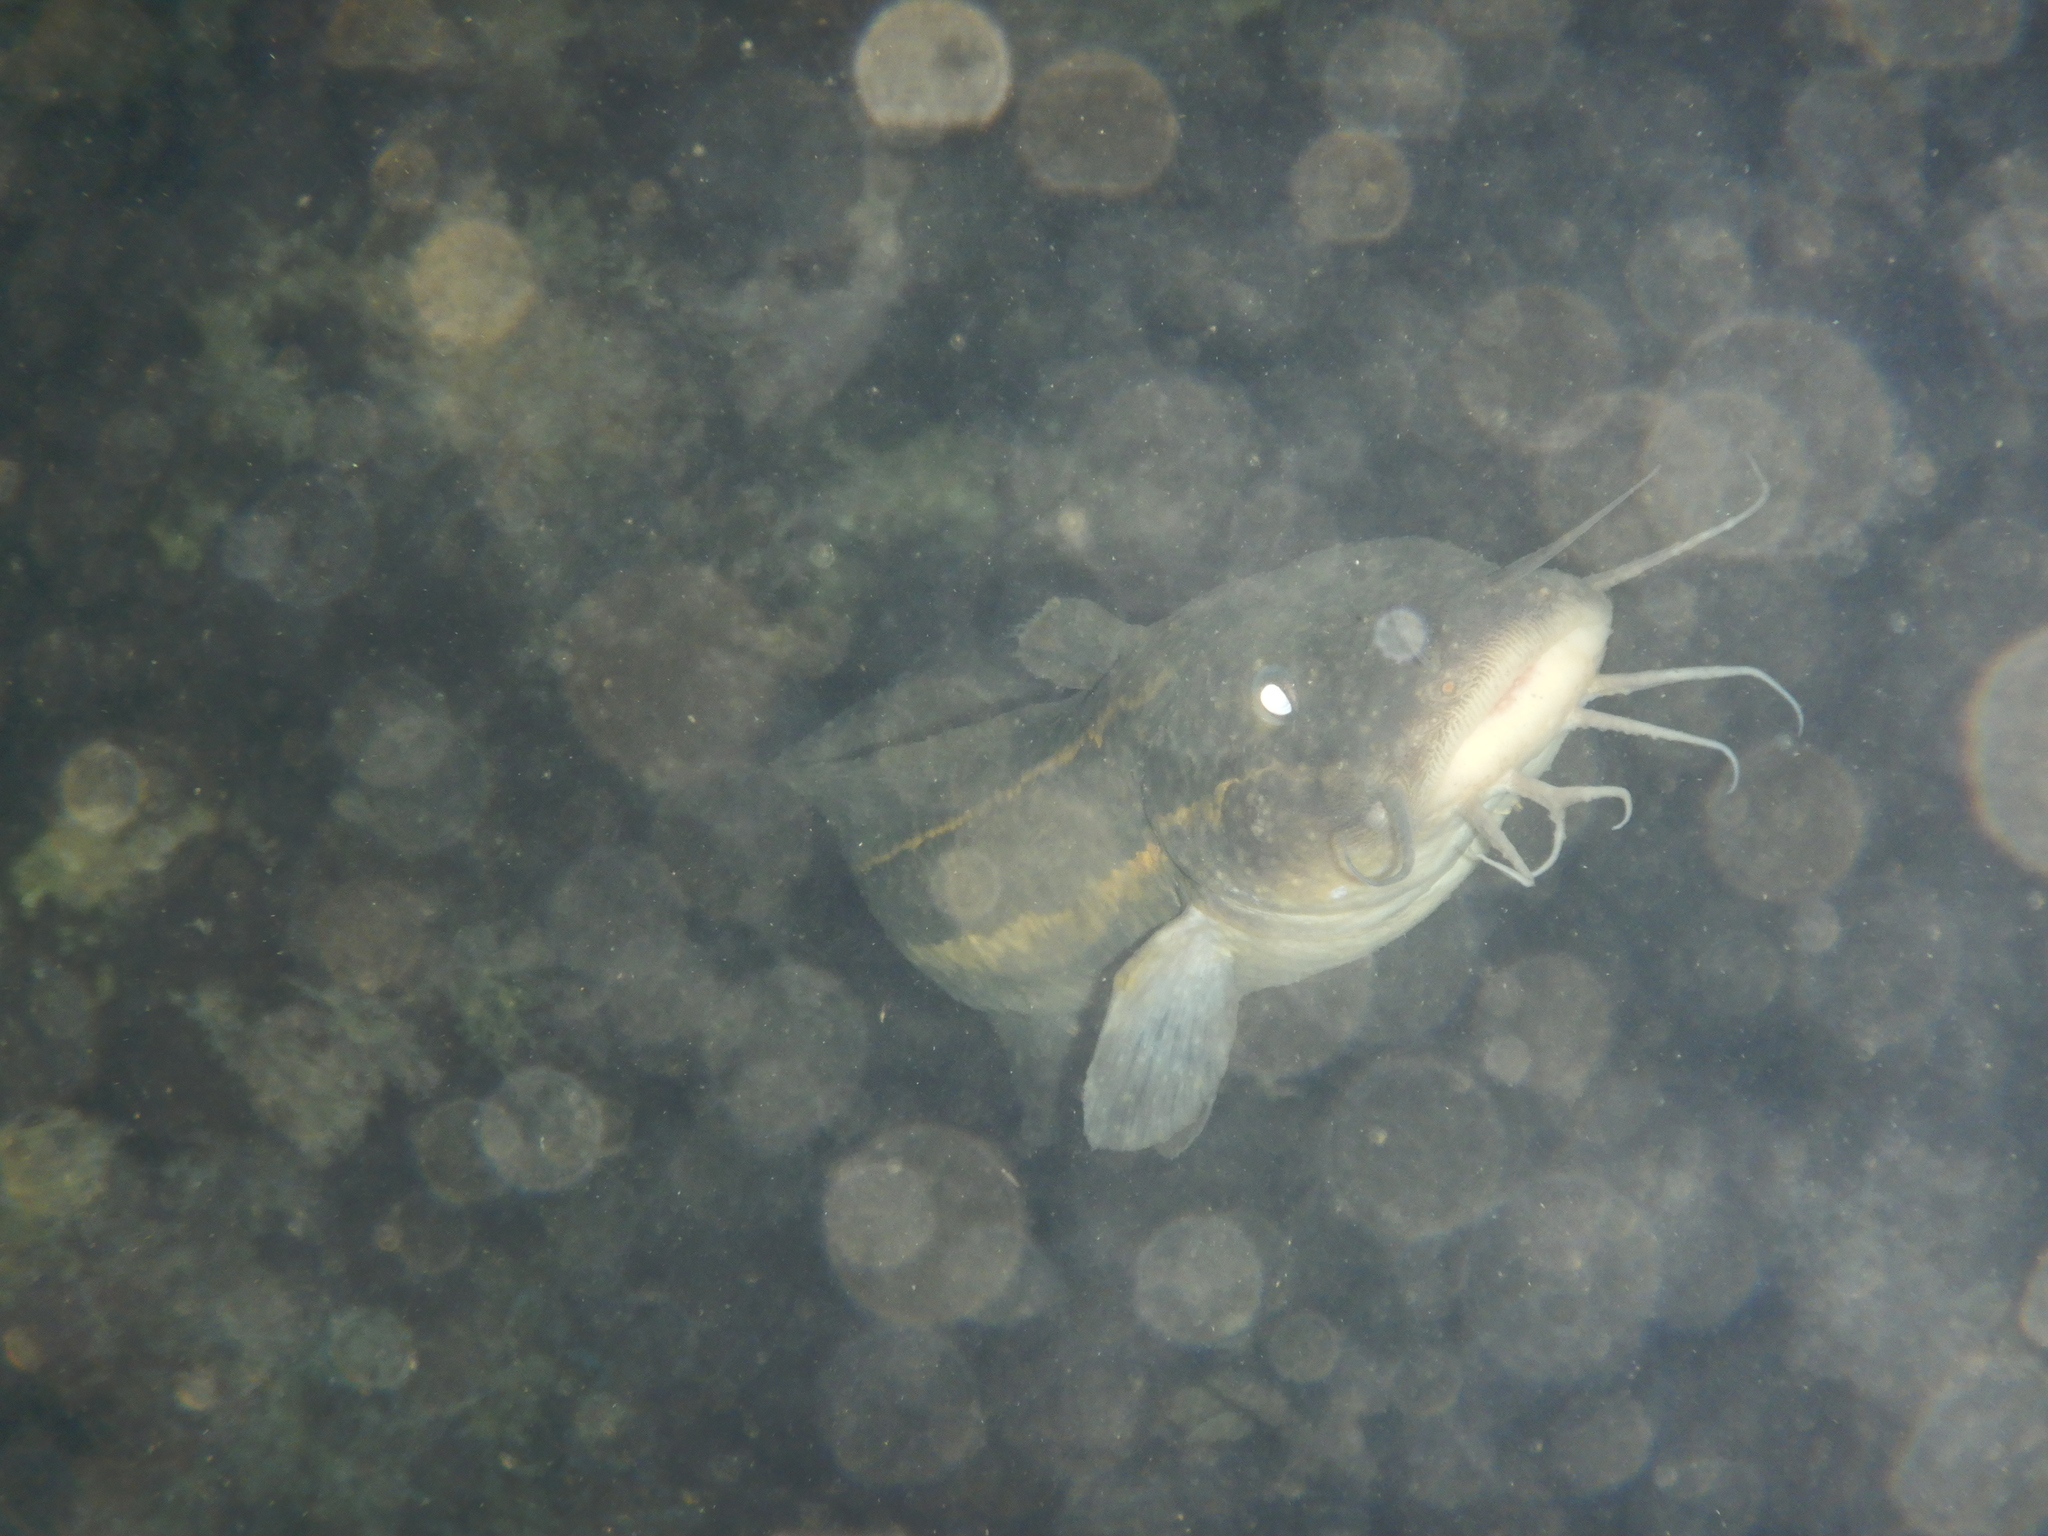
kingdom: Animalia
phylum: Chordata
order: Siluriformes
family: Plotosidae
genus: Plotosus
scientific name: Plotosus lineatus
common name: Striped eel catfish
